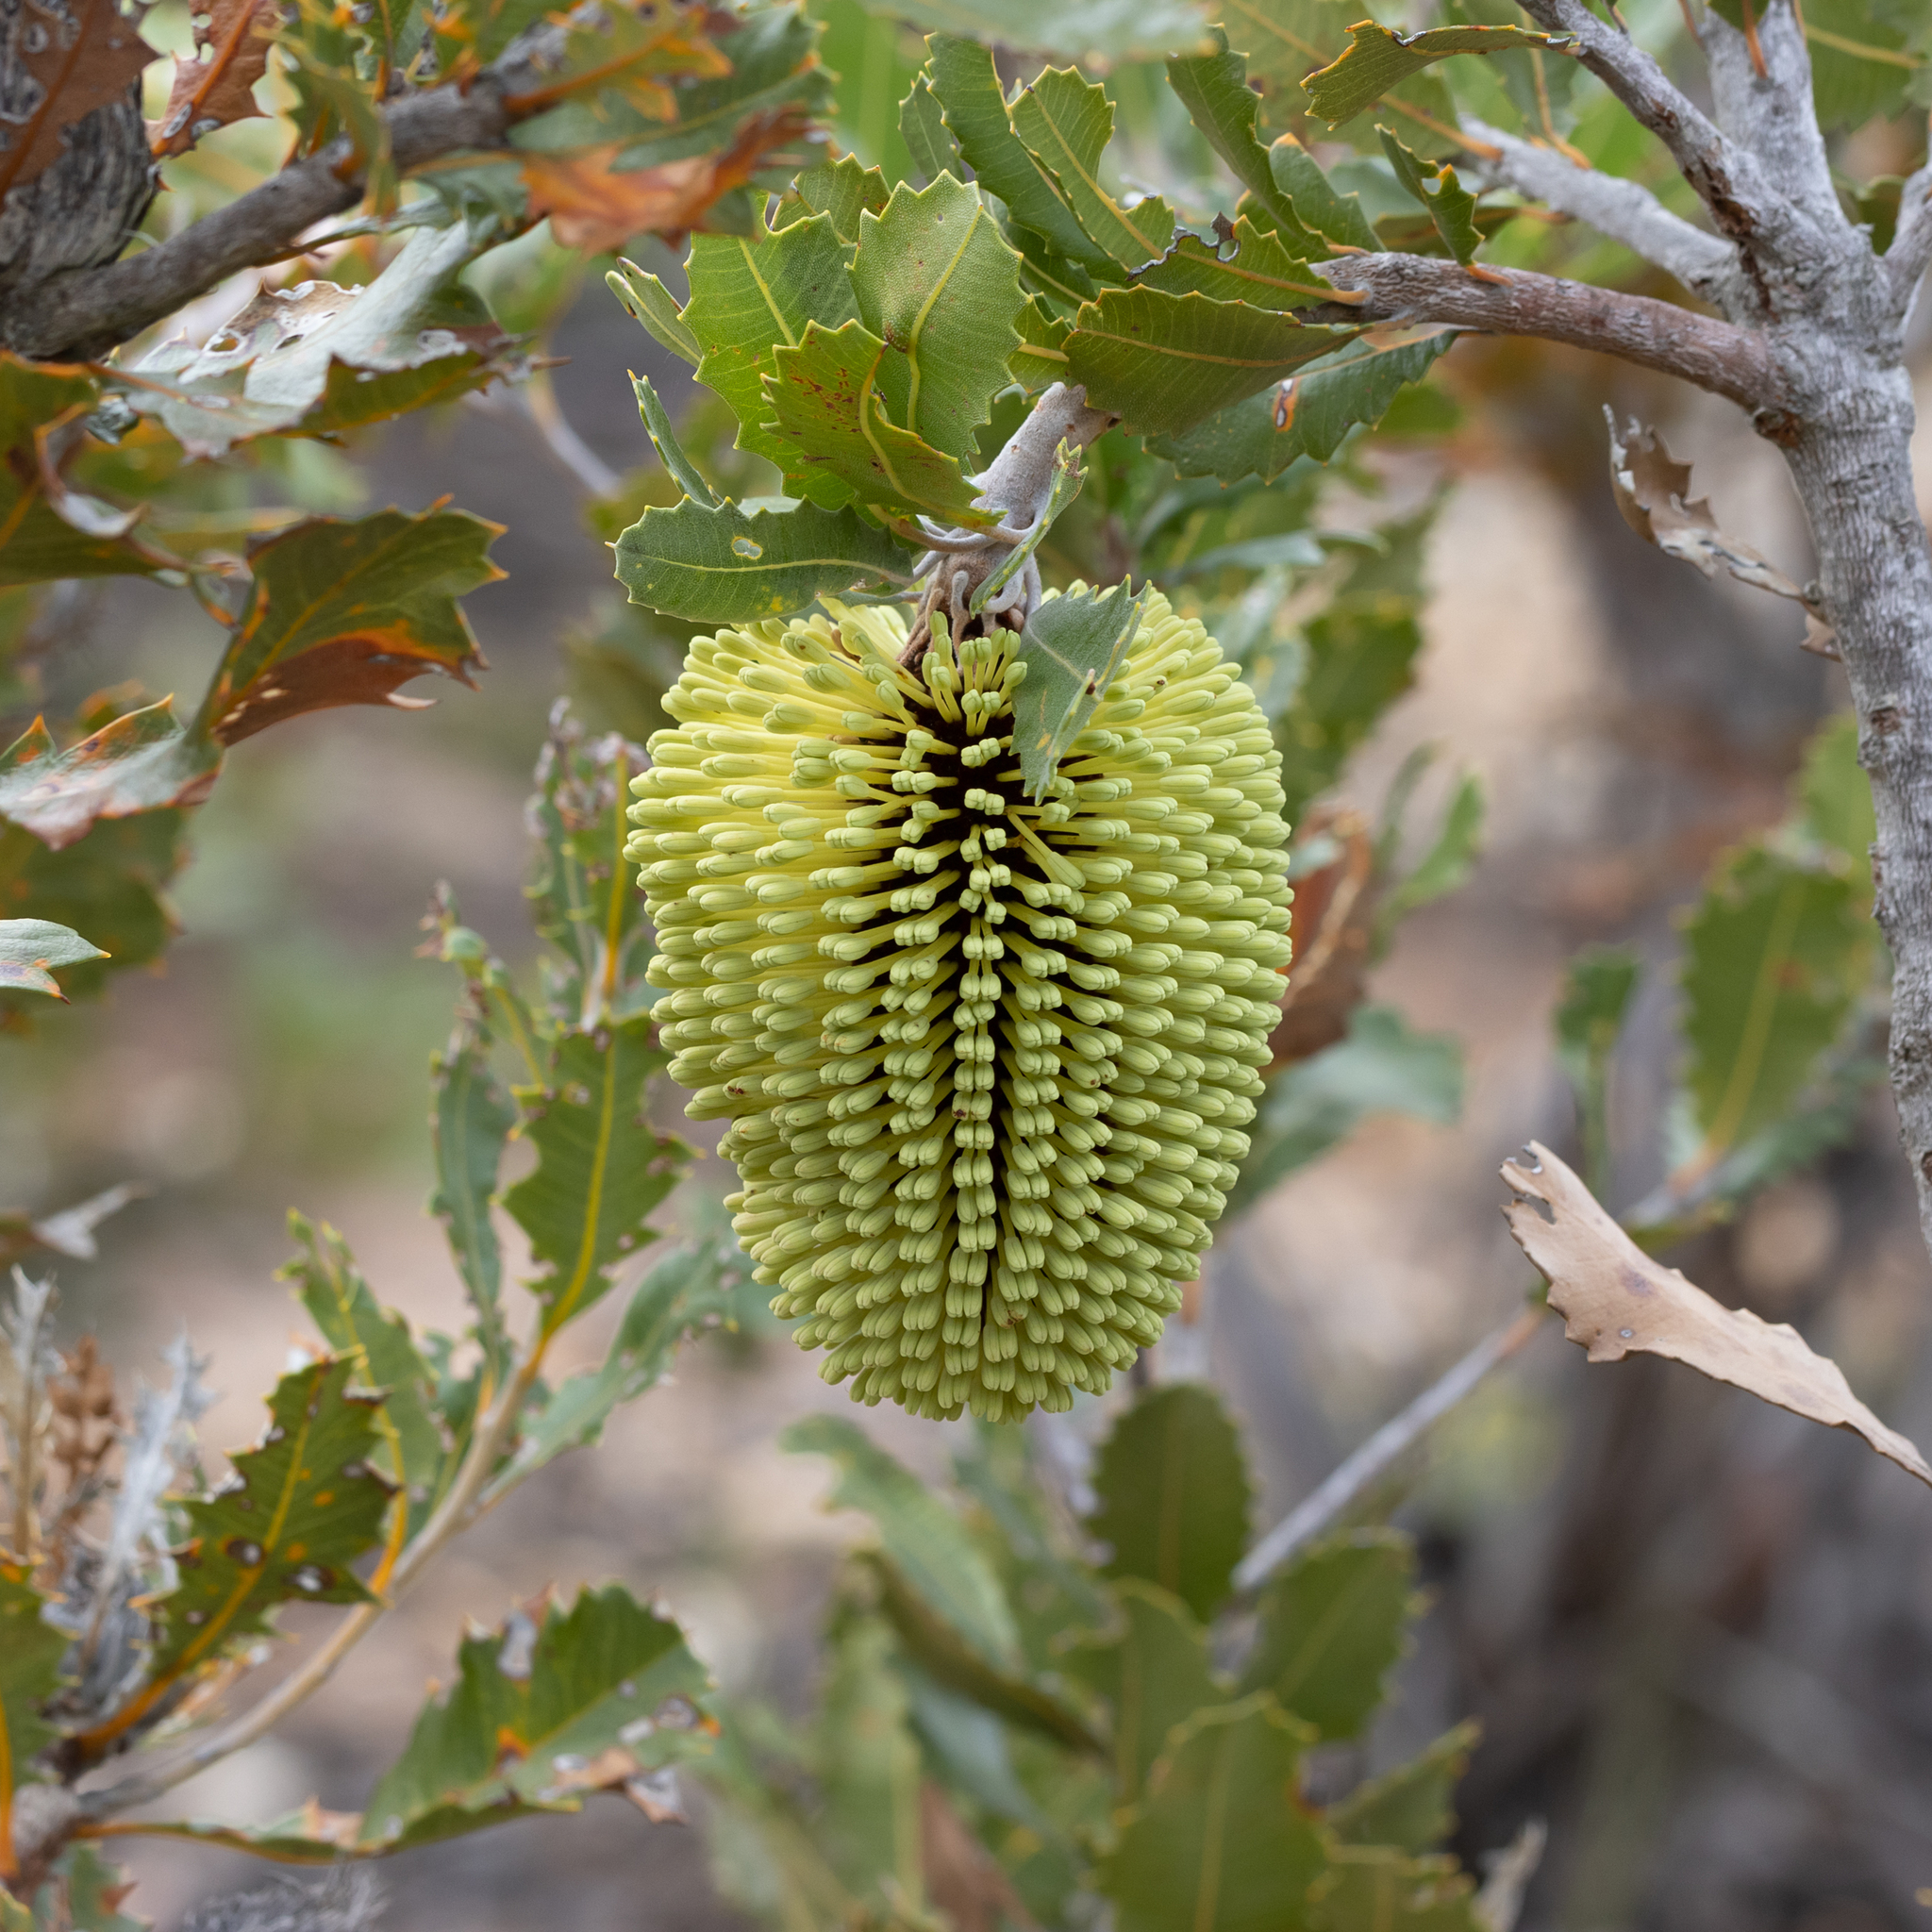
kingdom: Plantae
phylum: Tracheophyta
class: Magnoliopsida
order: Proteales
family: Proteaceae
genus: Banksia
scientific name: Banksia lemanniana
